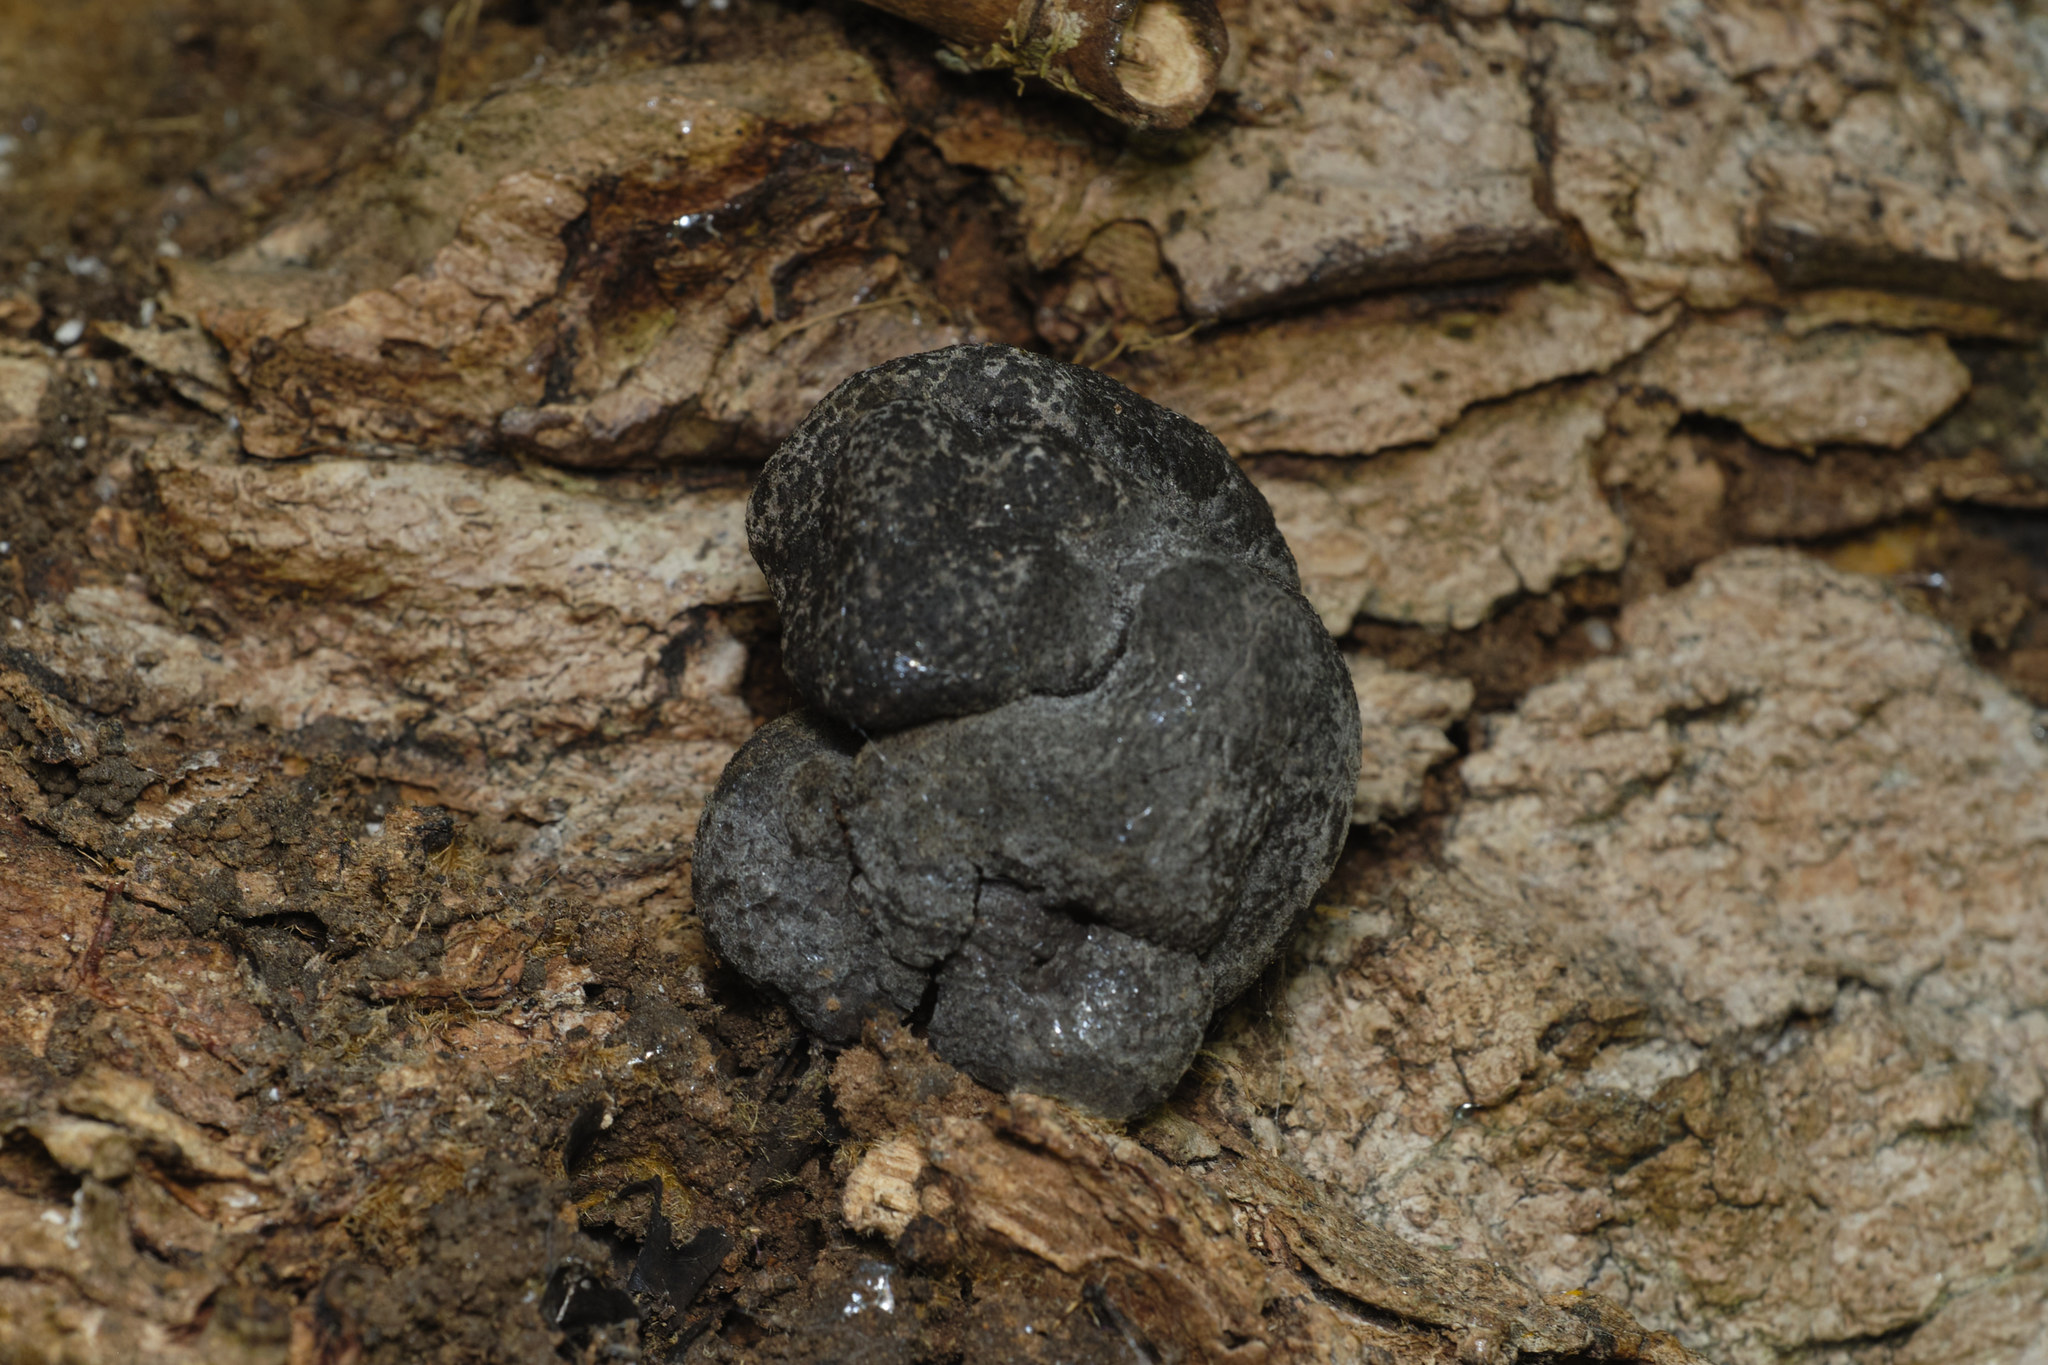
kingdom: Fungi
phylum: Ascomycota
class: Sordariomycetes
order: Xylariales
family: Xylariaceae
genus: Xylaria
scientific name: Xylaria polymorpha
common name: Dead man's fingers
